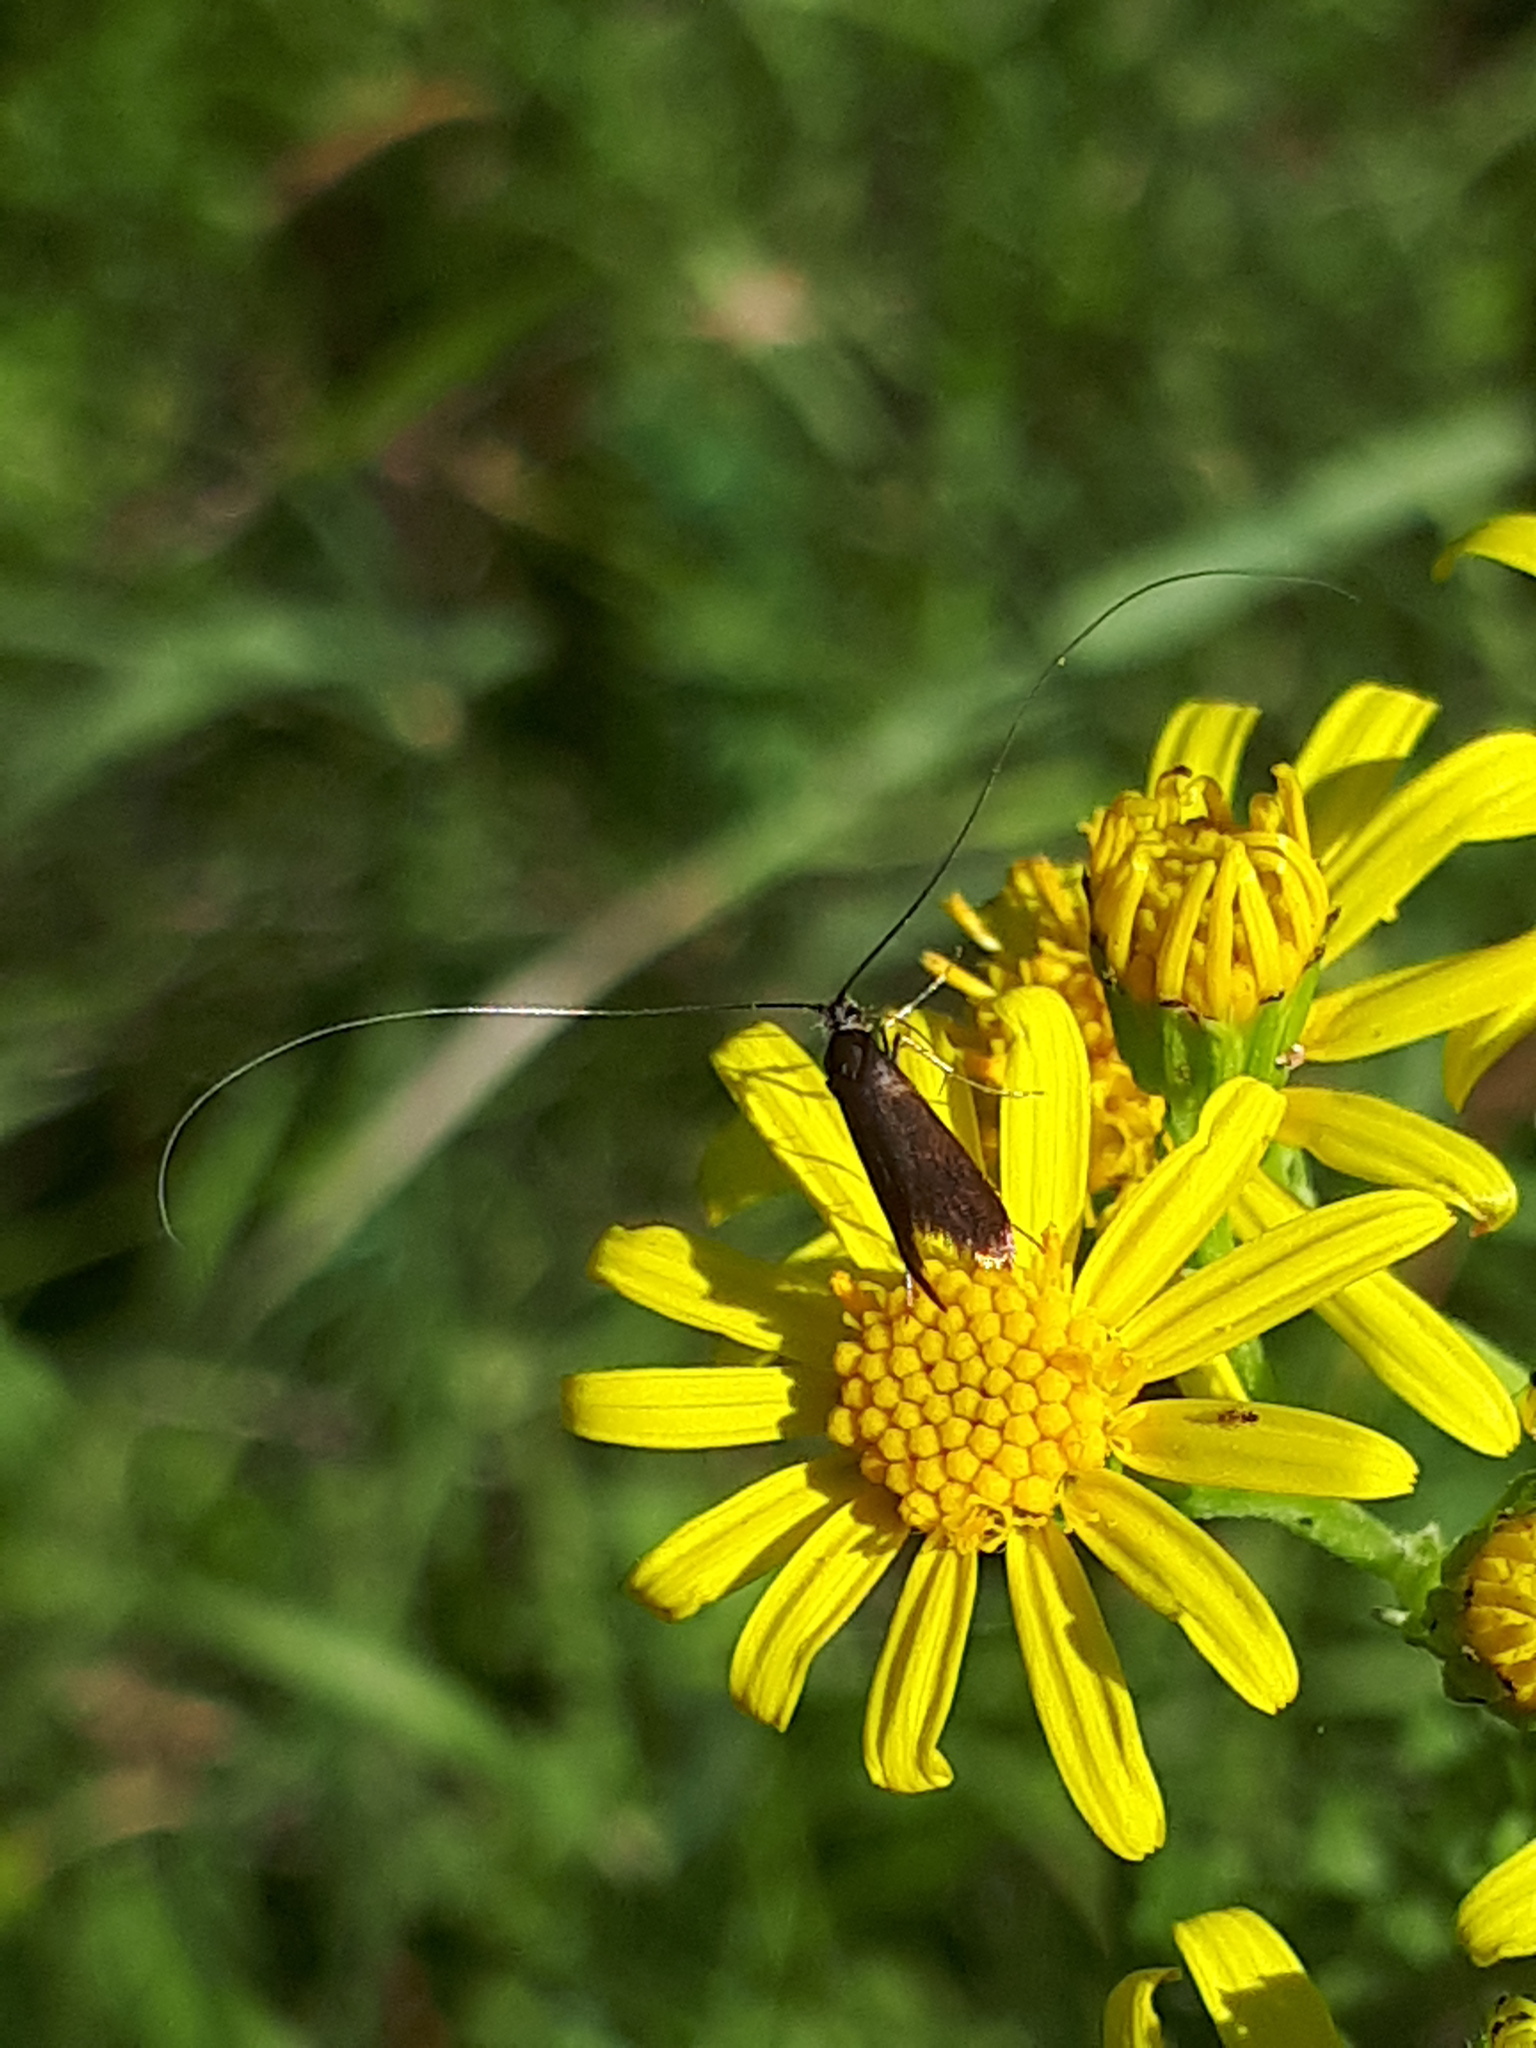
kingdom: Animalia
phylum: Arthropoda
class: Insecta
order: Lepidoptera
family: Adelidae
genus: Adela
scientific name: Adela violella
